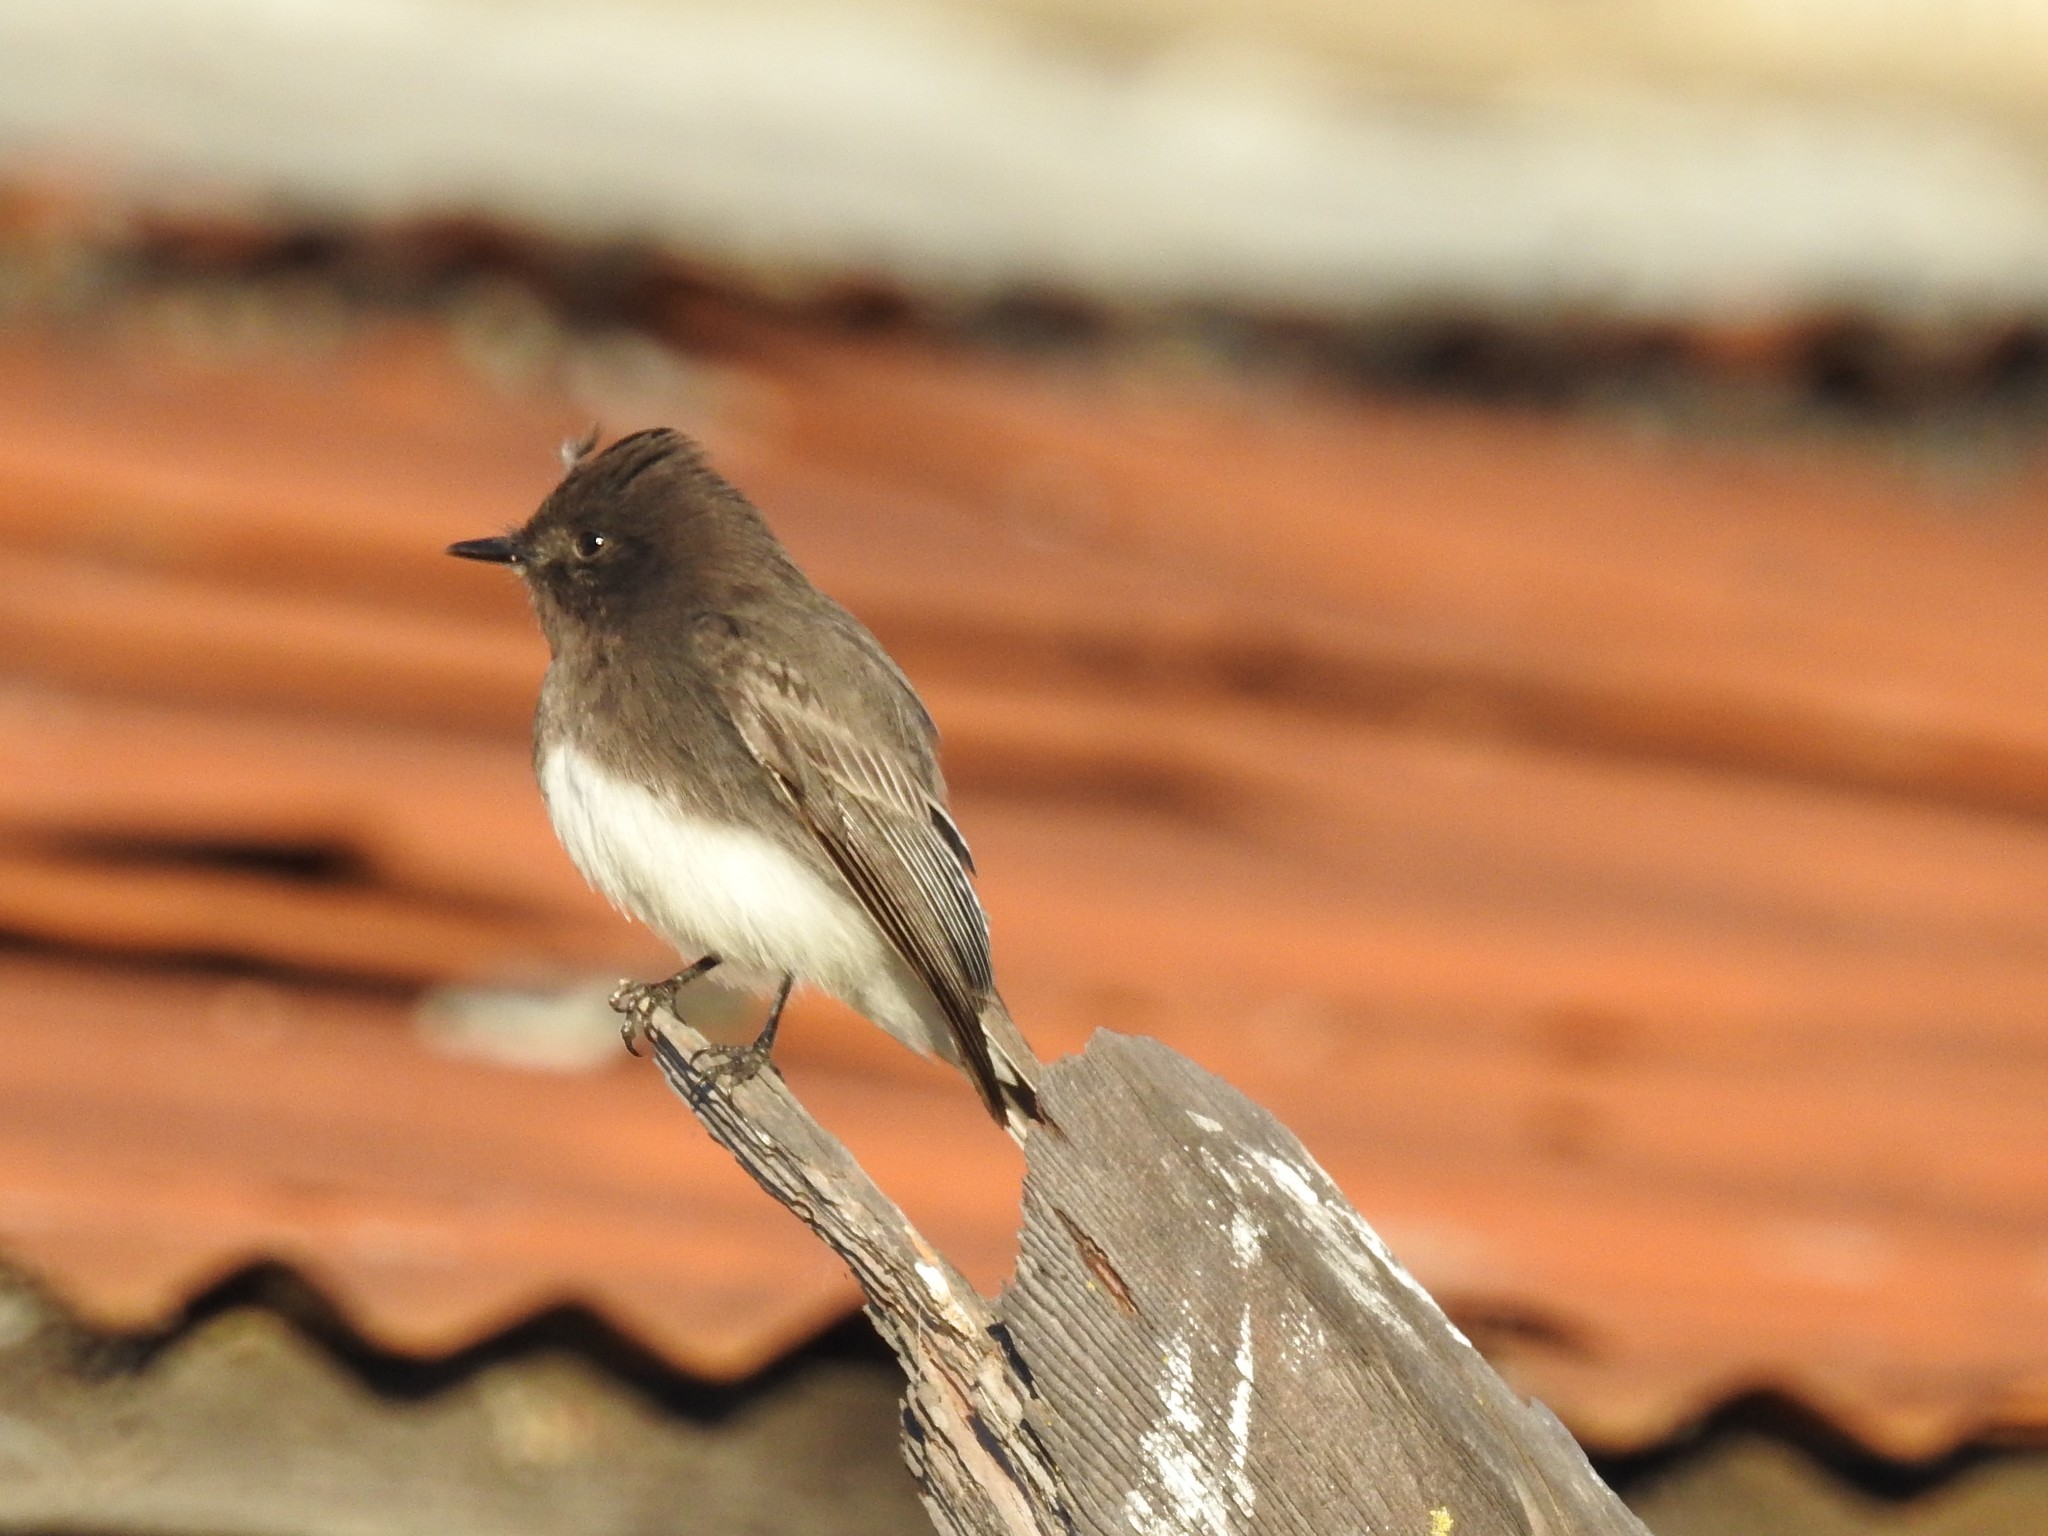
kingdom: Animalia
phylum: Chordata
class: Aves
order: Passeriformes
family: Tyrannidae
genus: Sayornis
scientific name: Sayornis nigricans
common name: Black phoebe
